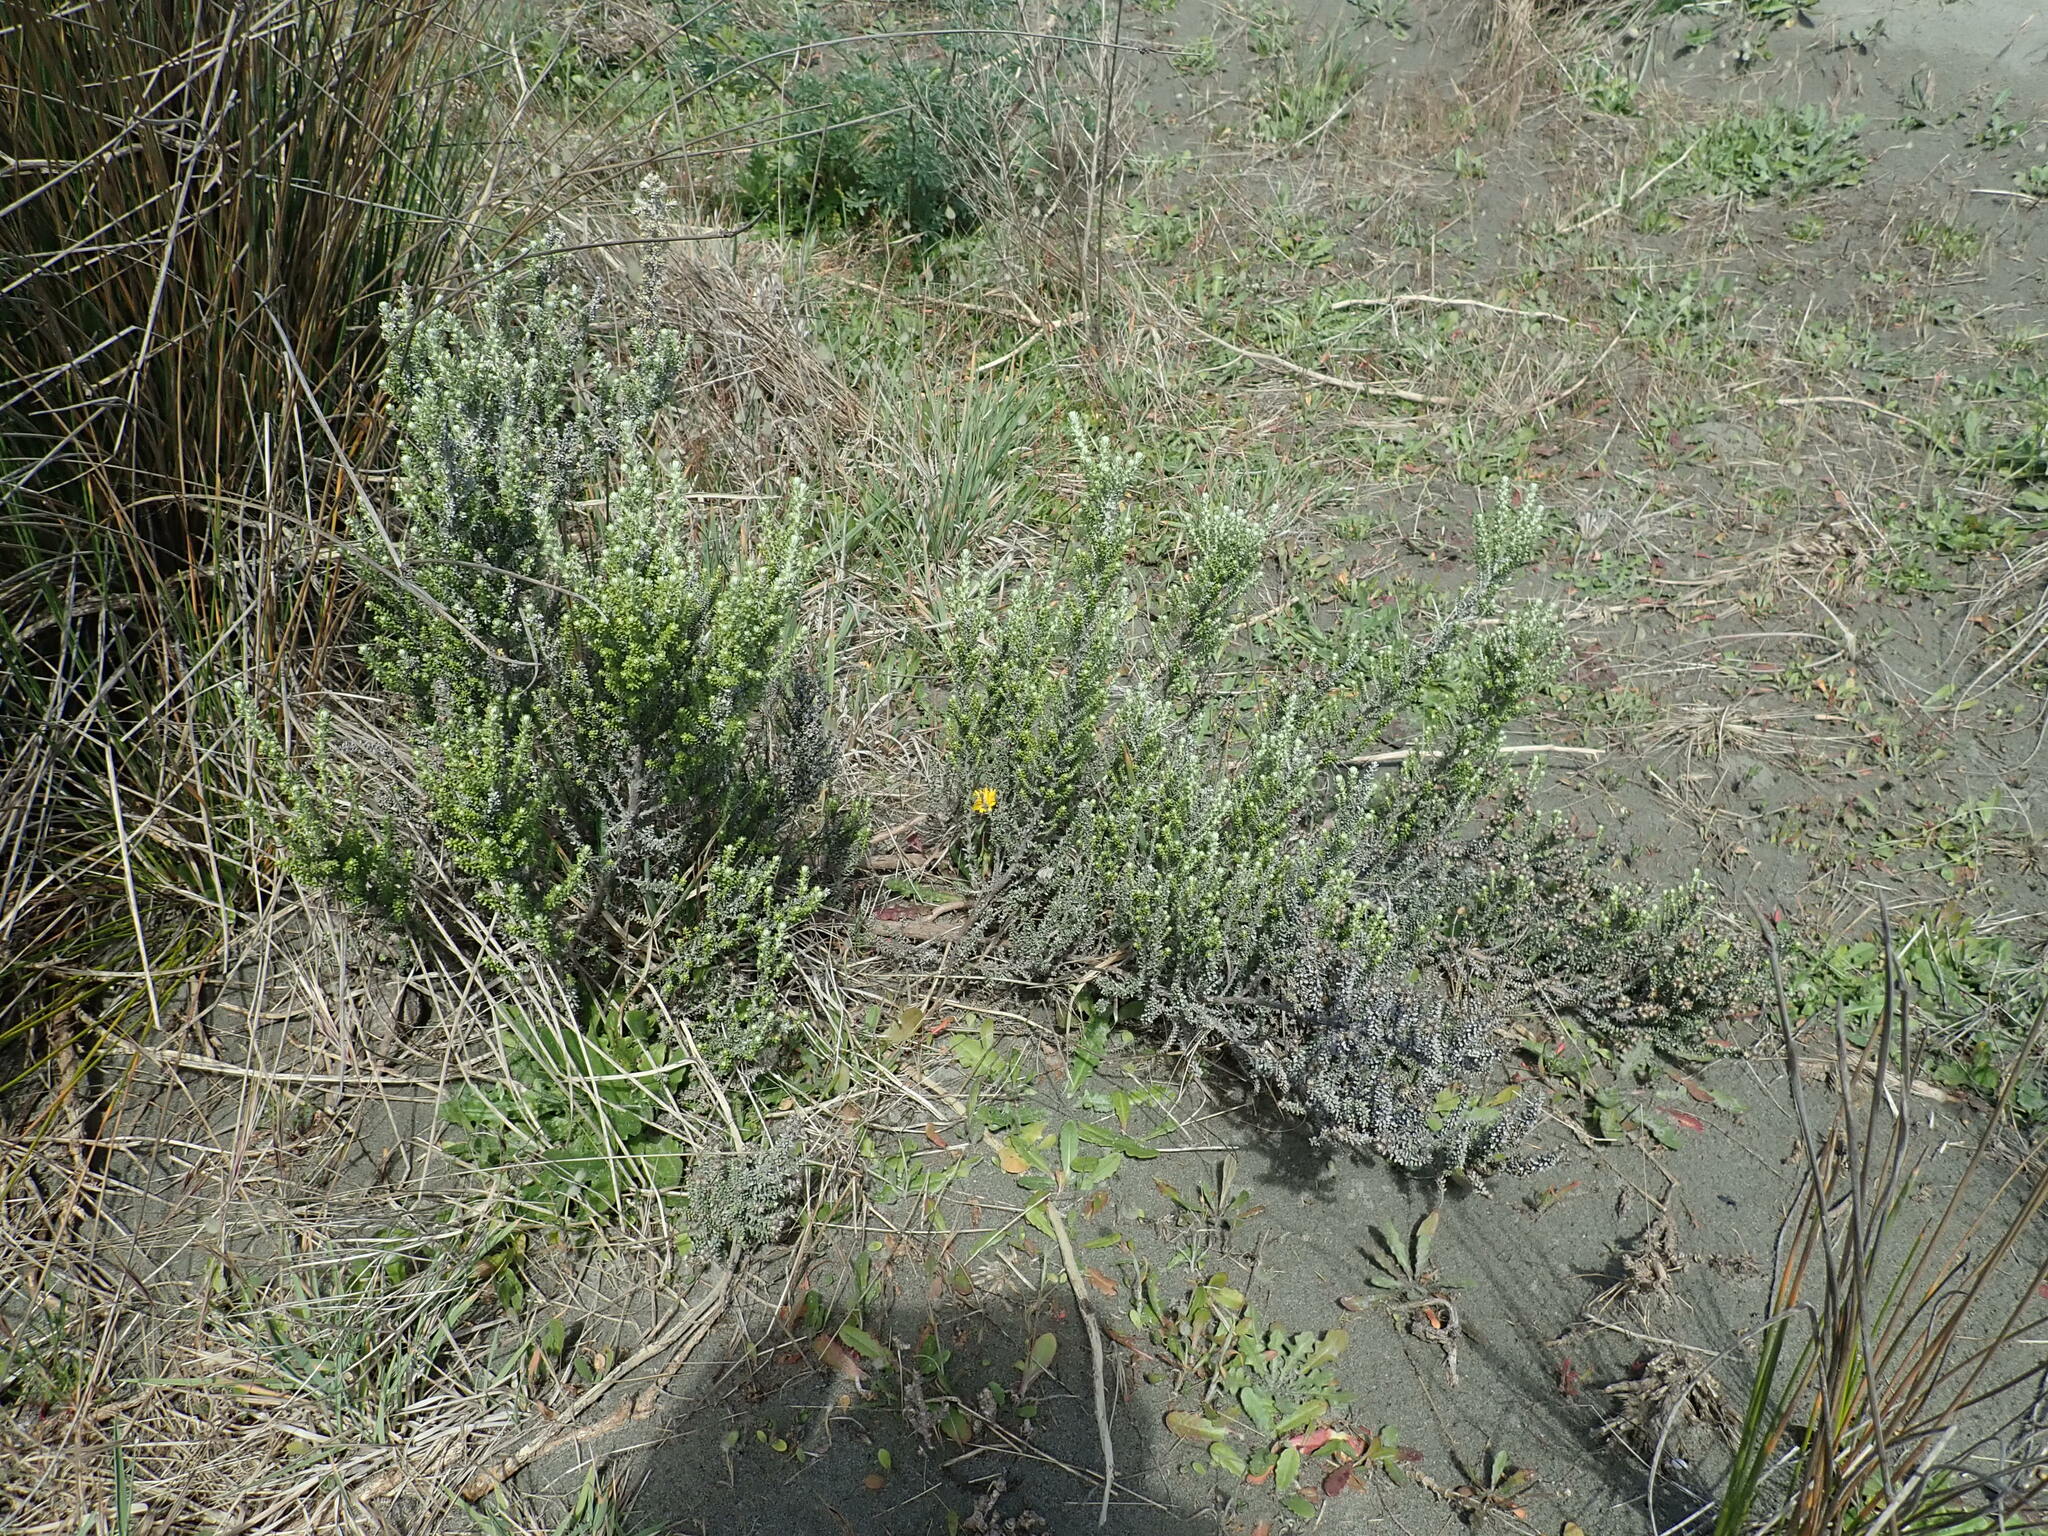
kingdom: Plantae
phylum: Tracheophyta
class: Magnoliopsida
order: Asterales
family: Asteraceae
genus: Ozothamnus
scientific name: Ozothamnus leptophyllus
